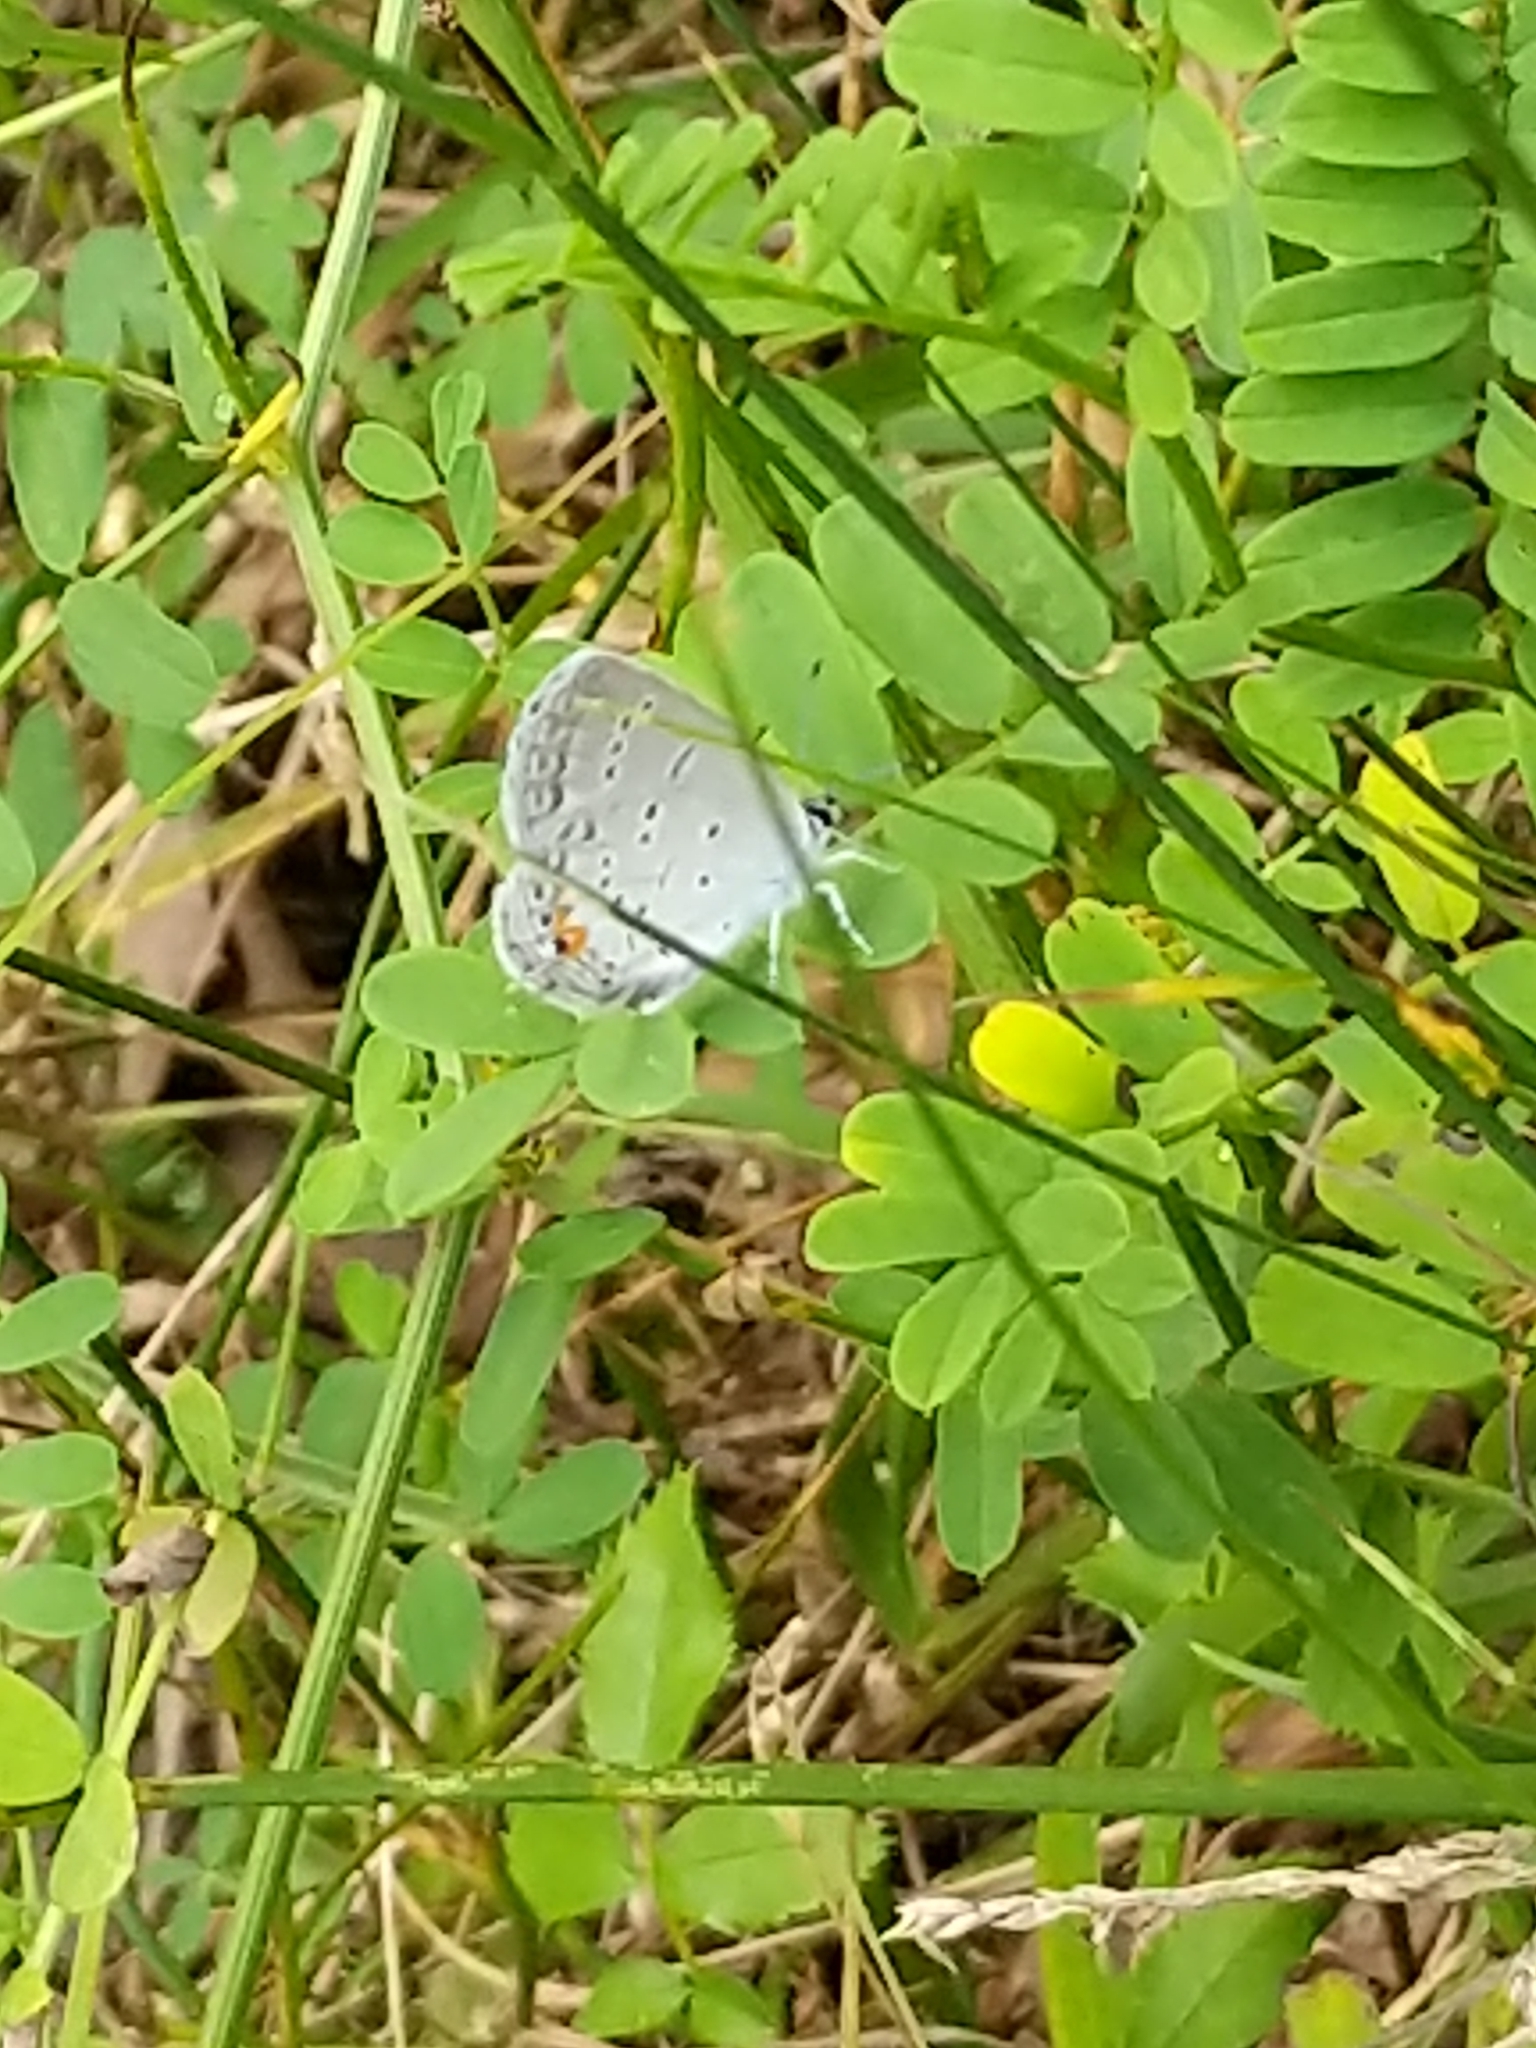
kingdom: Animalia
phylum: Arthropoda
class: Insecta
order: Lepidoptera
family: Lycaenidae
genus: Elkalyce
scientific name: Elkalyce comyntas
